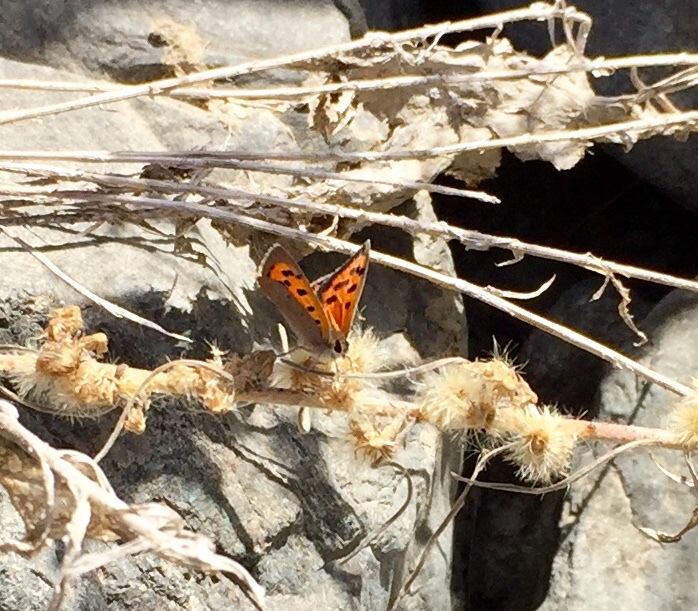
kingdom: Animalia
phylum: Arthropoda
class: Insecta
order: Lepidoptera
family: Lycaenidae
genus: Lycaena
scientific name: Lycaena phlaeas
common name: Small copper
